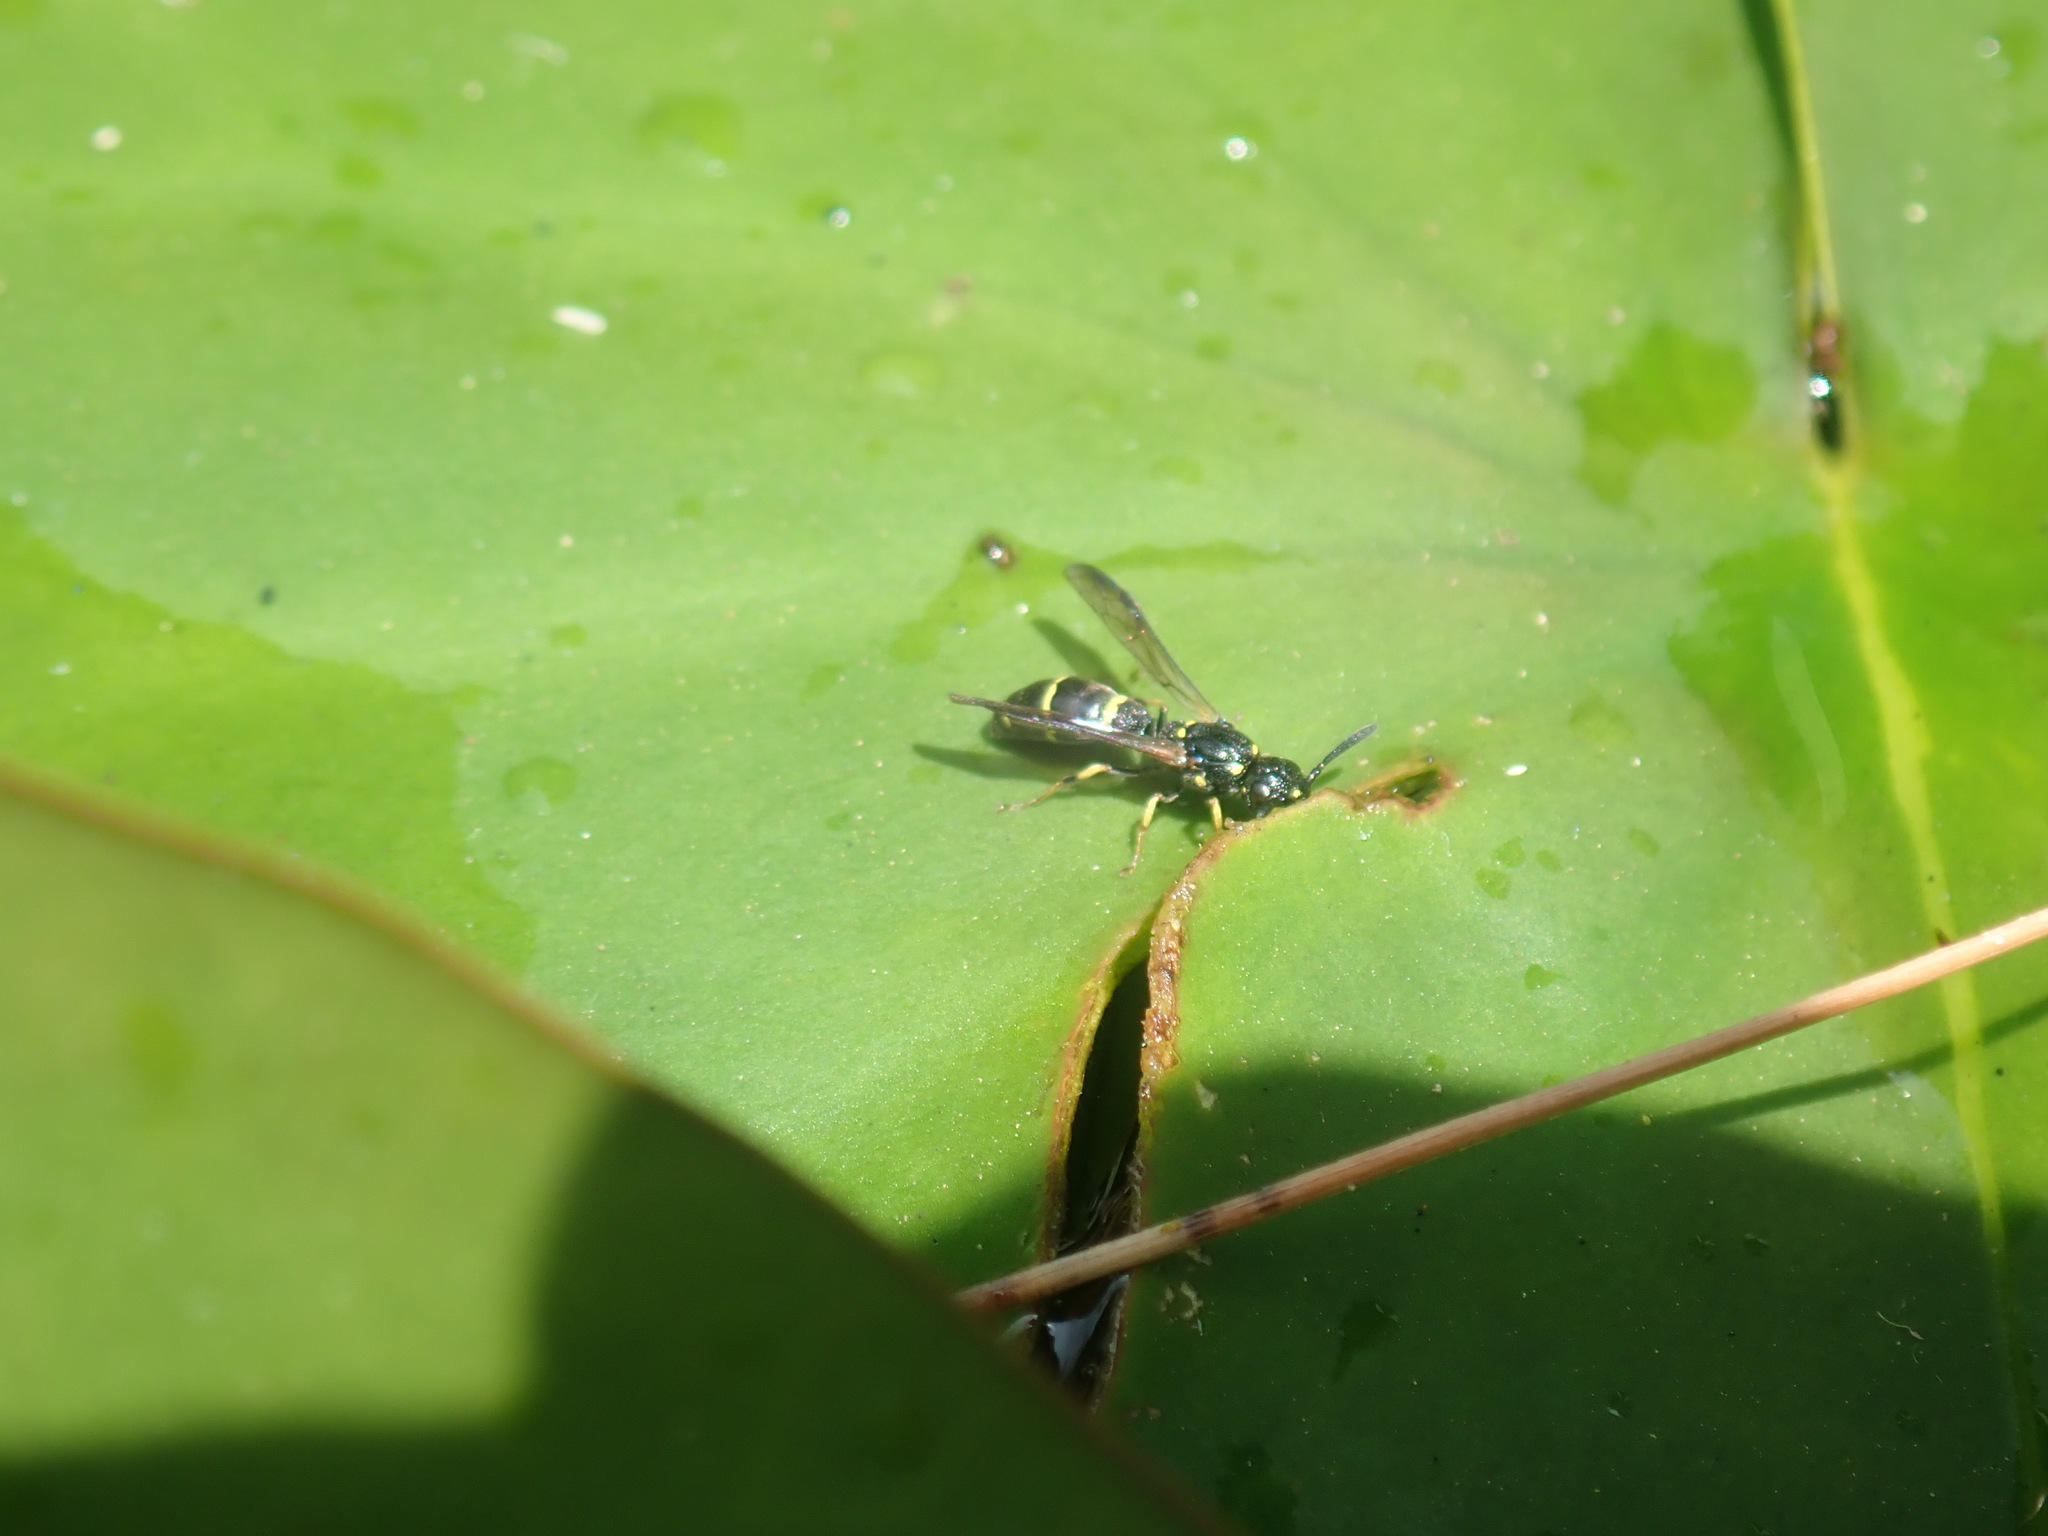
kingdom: Animalia
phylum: Arthropoda
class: Insecta
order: Hymenoptera
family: Eumenidae
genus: Symmorphus
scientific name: Symmorphus
